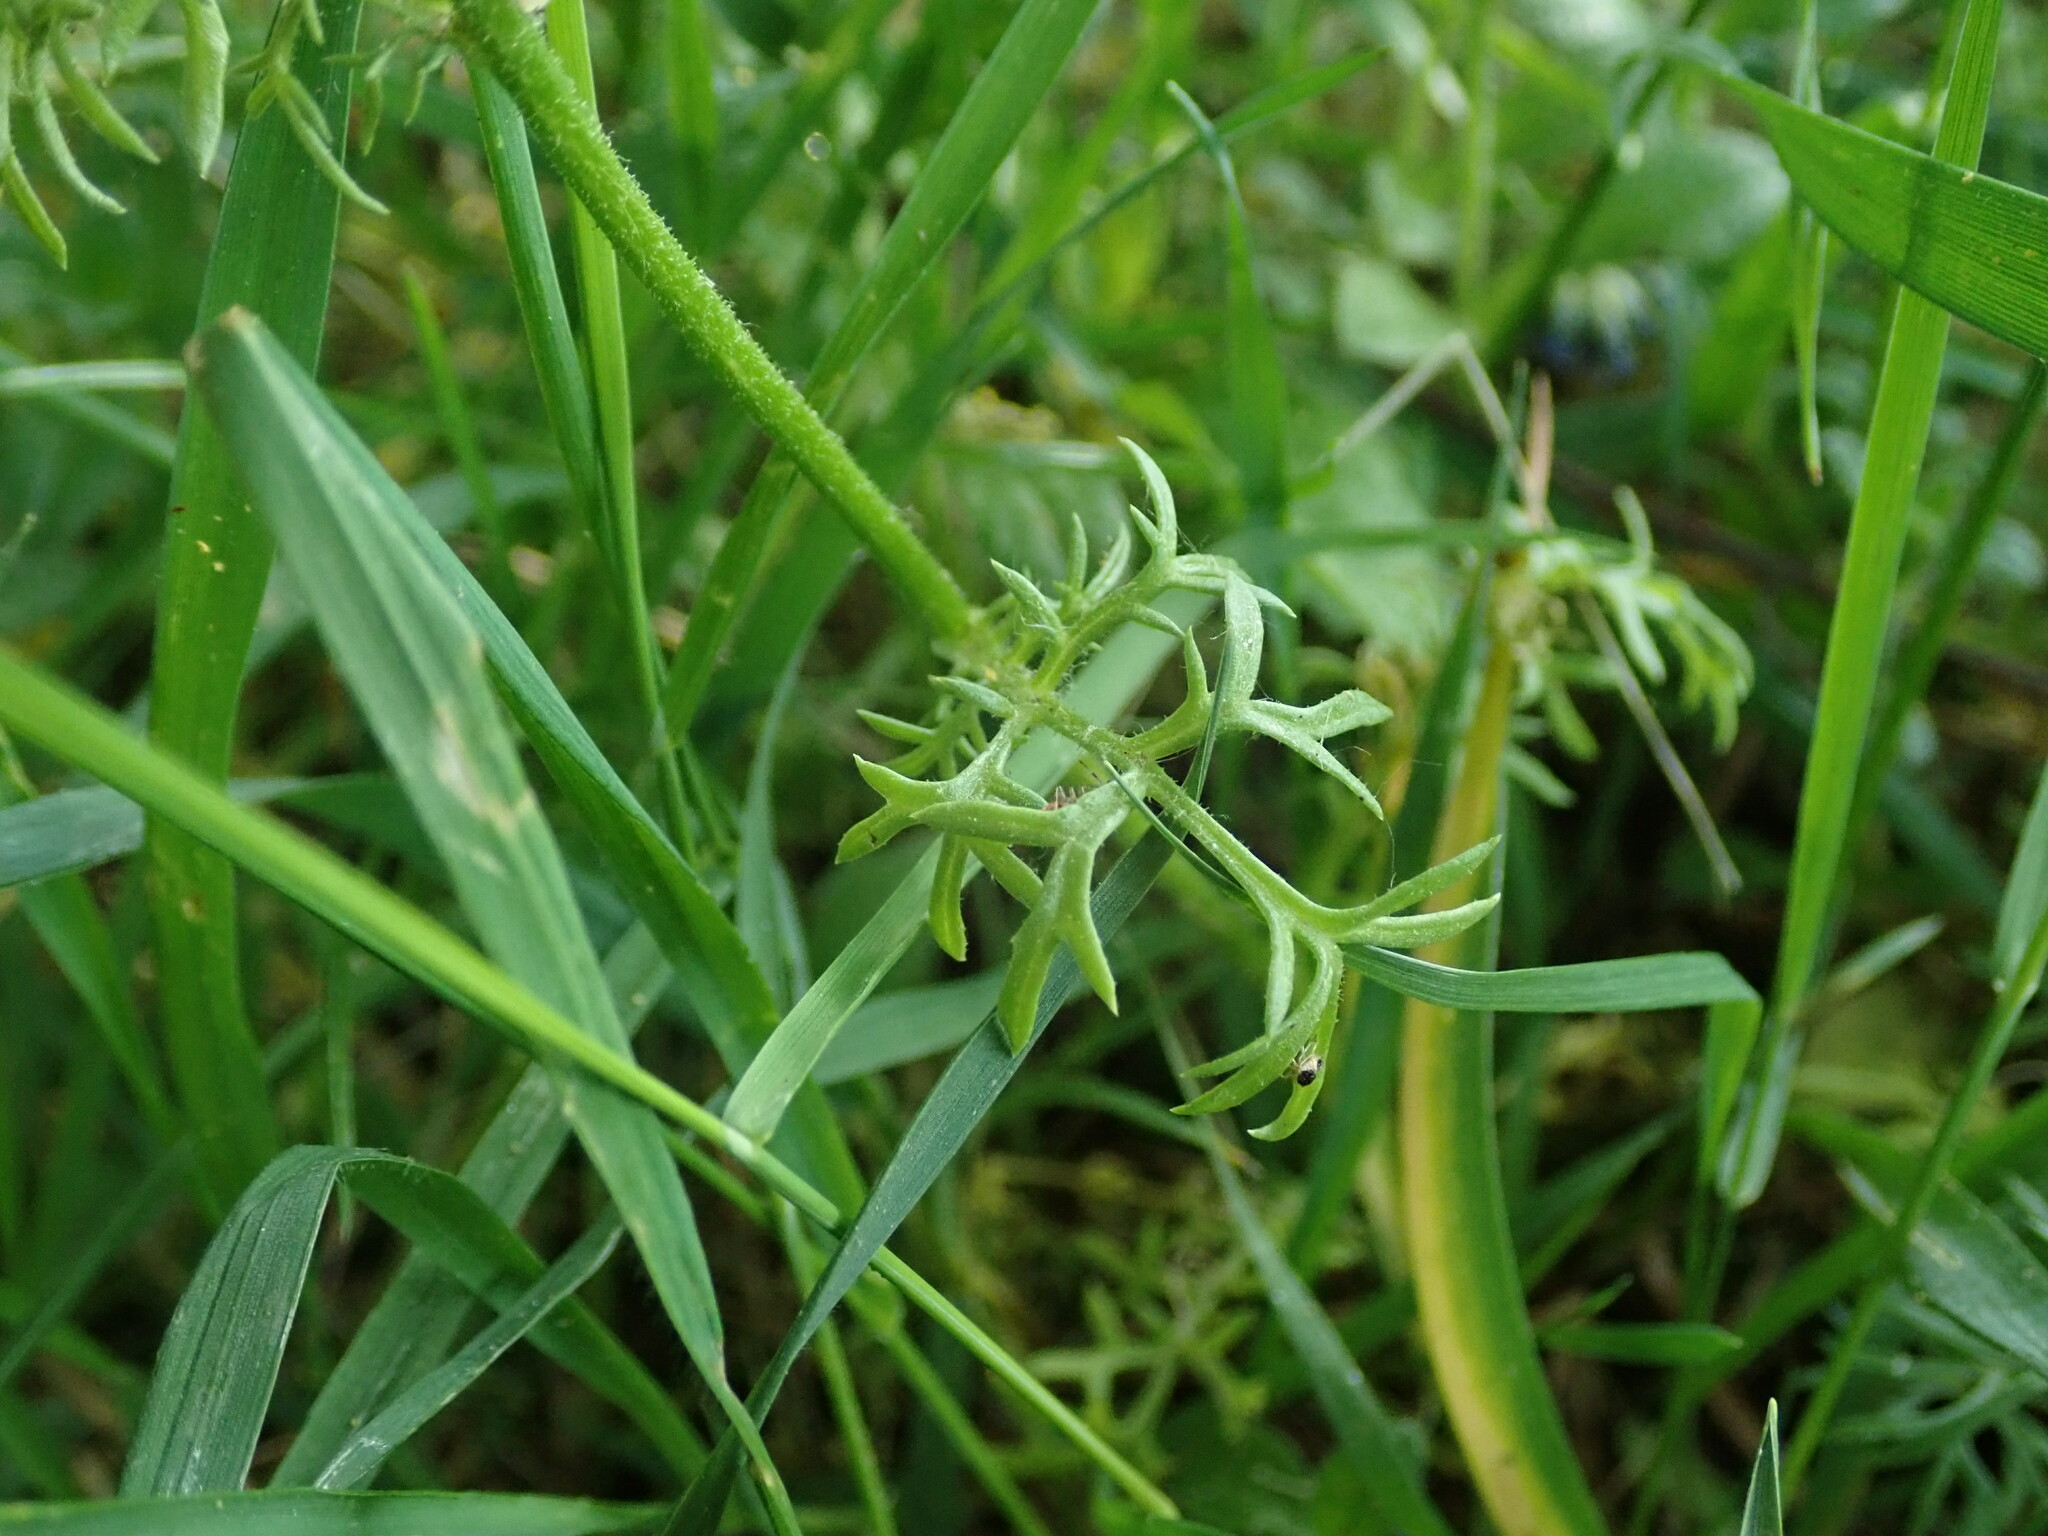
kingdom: Plantae
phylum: Tracheophyta
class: Magnoliopsida
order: Ericales
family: Polemoniaceae
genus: Gilia
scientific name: Gilia capitata
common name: Bluehead gilia
